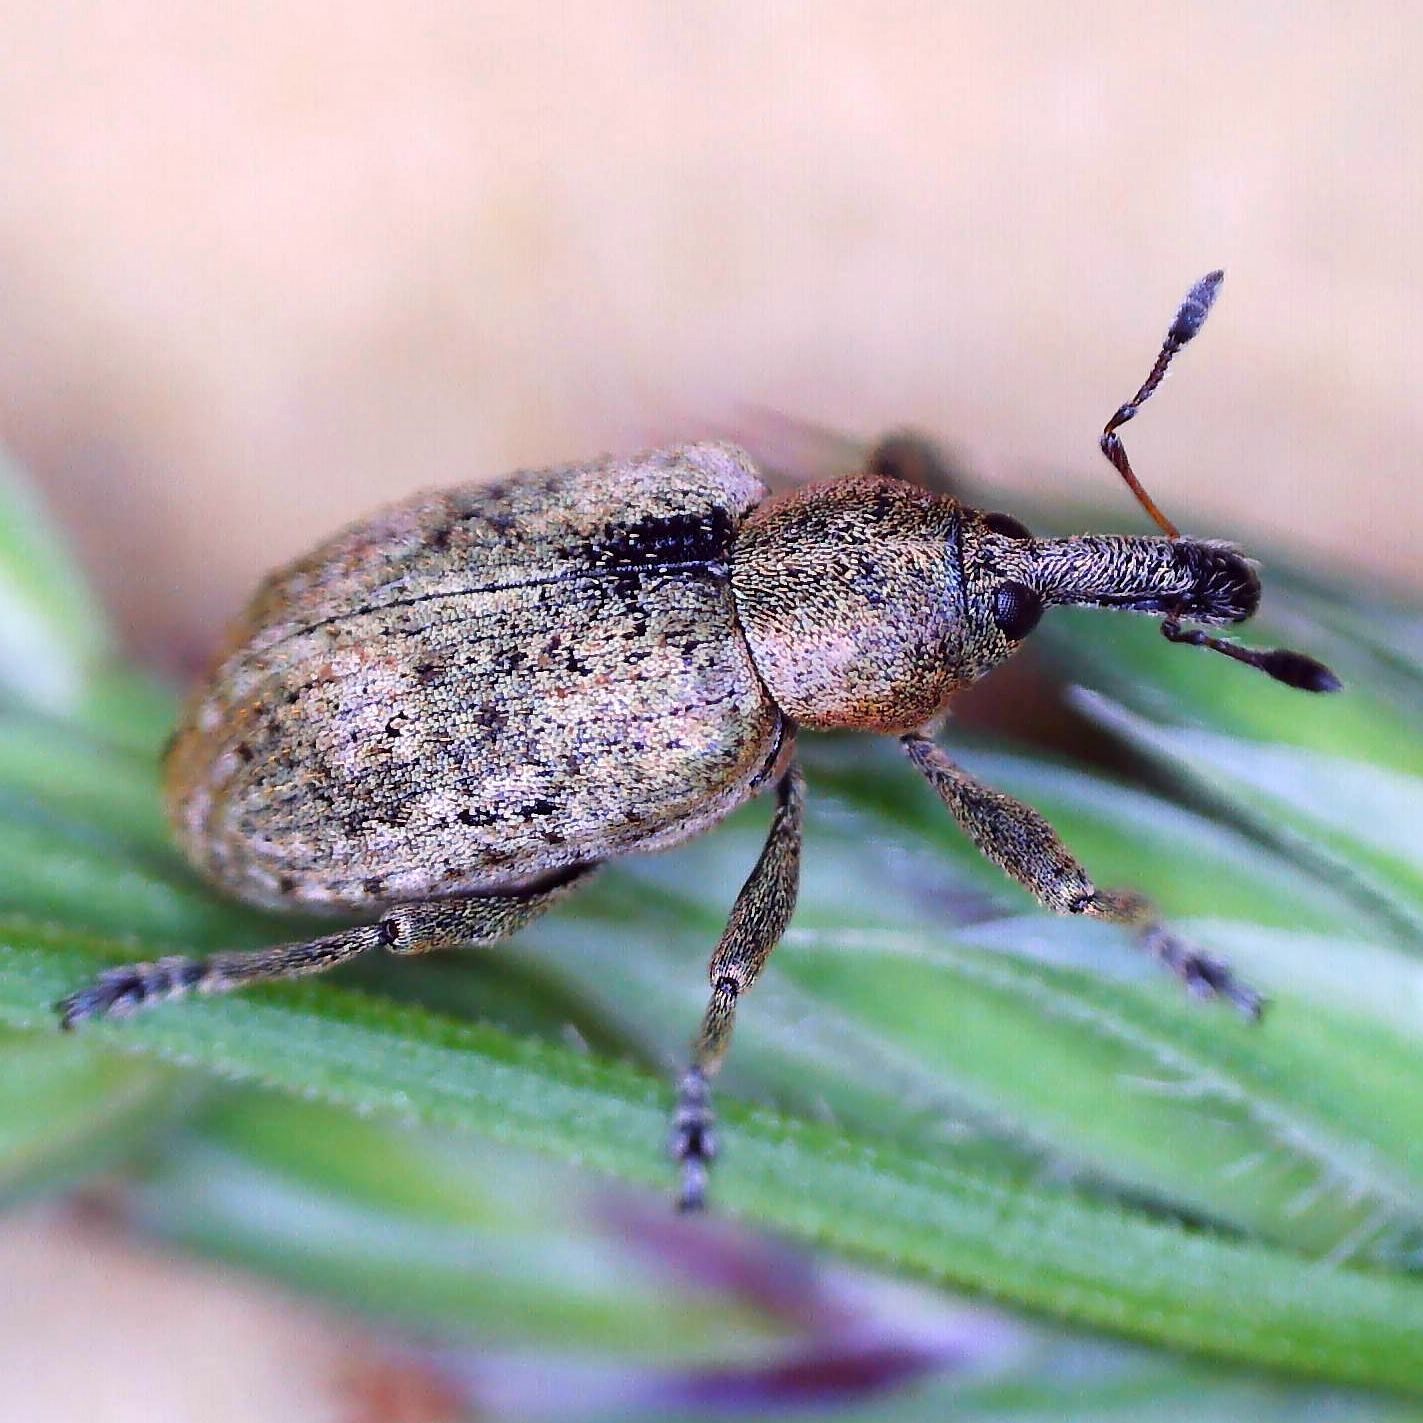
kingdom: Animalia
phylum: Arthropoda
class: Insecta
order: Coleoptera
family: Curculionidae
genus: Hypera
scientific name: Hypera rumicis
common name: Weevil
